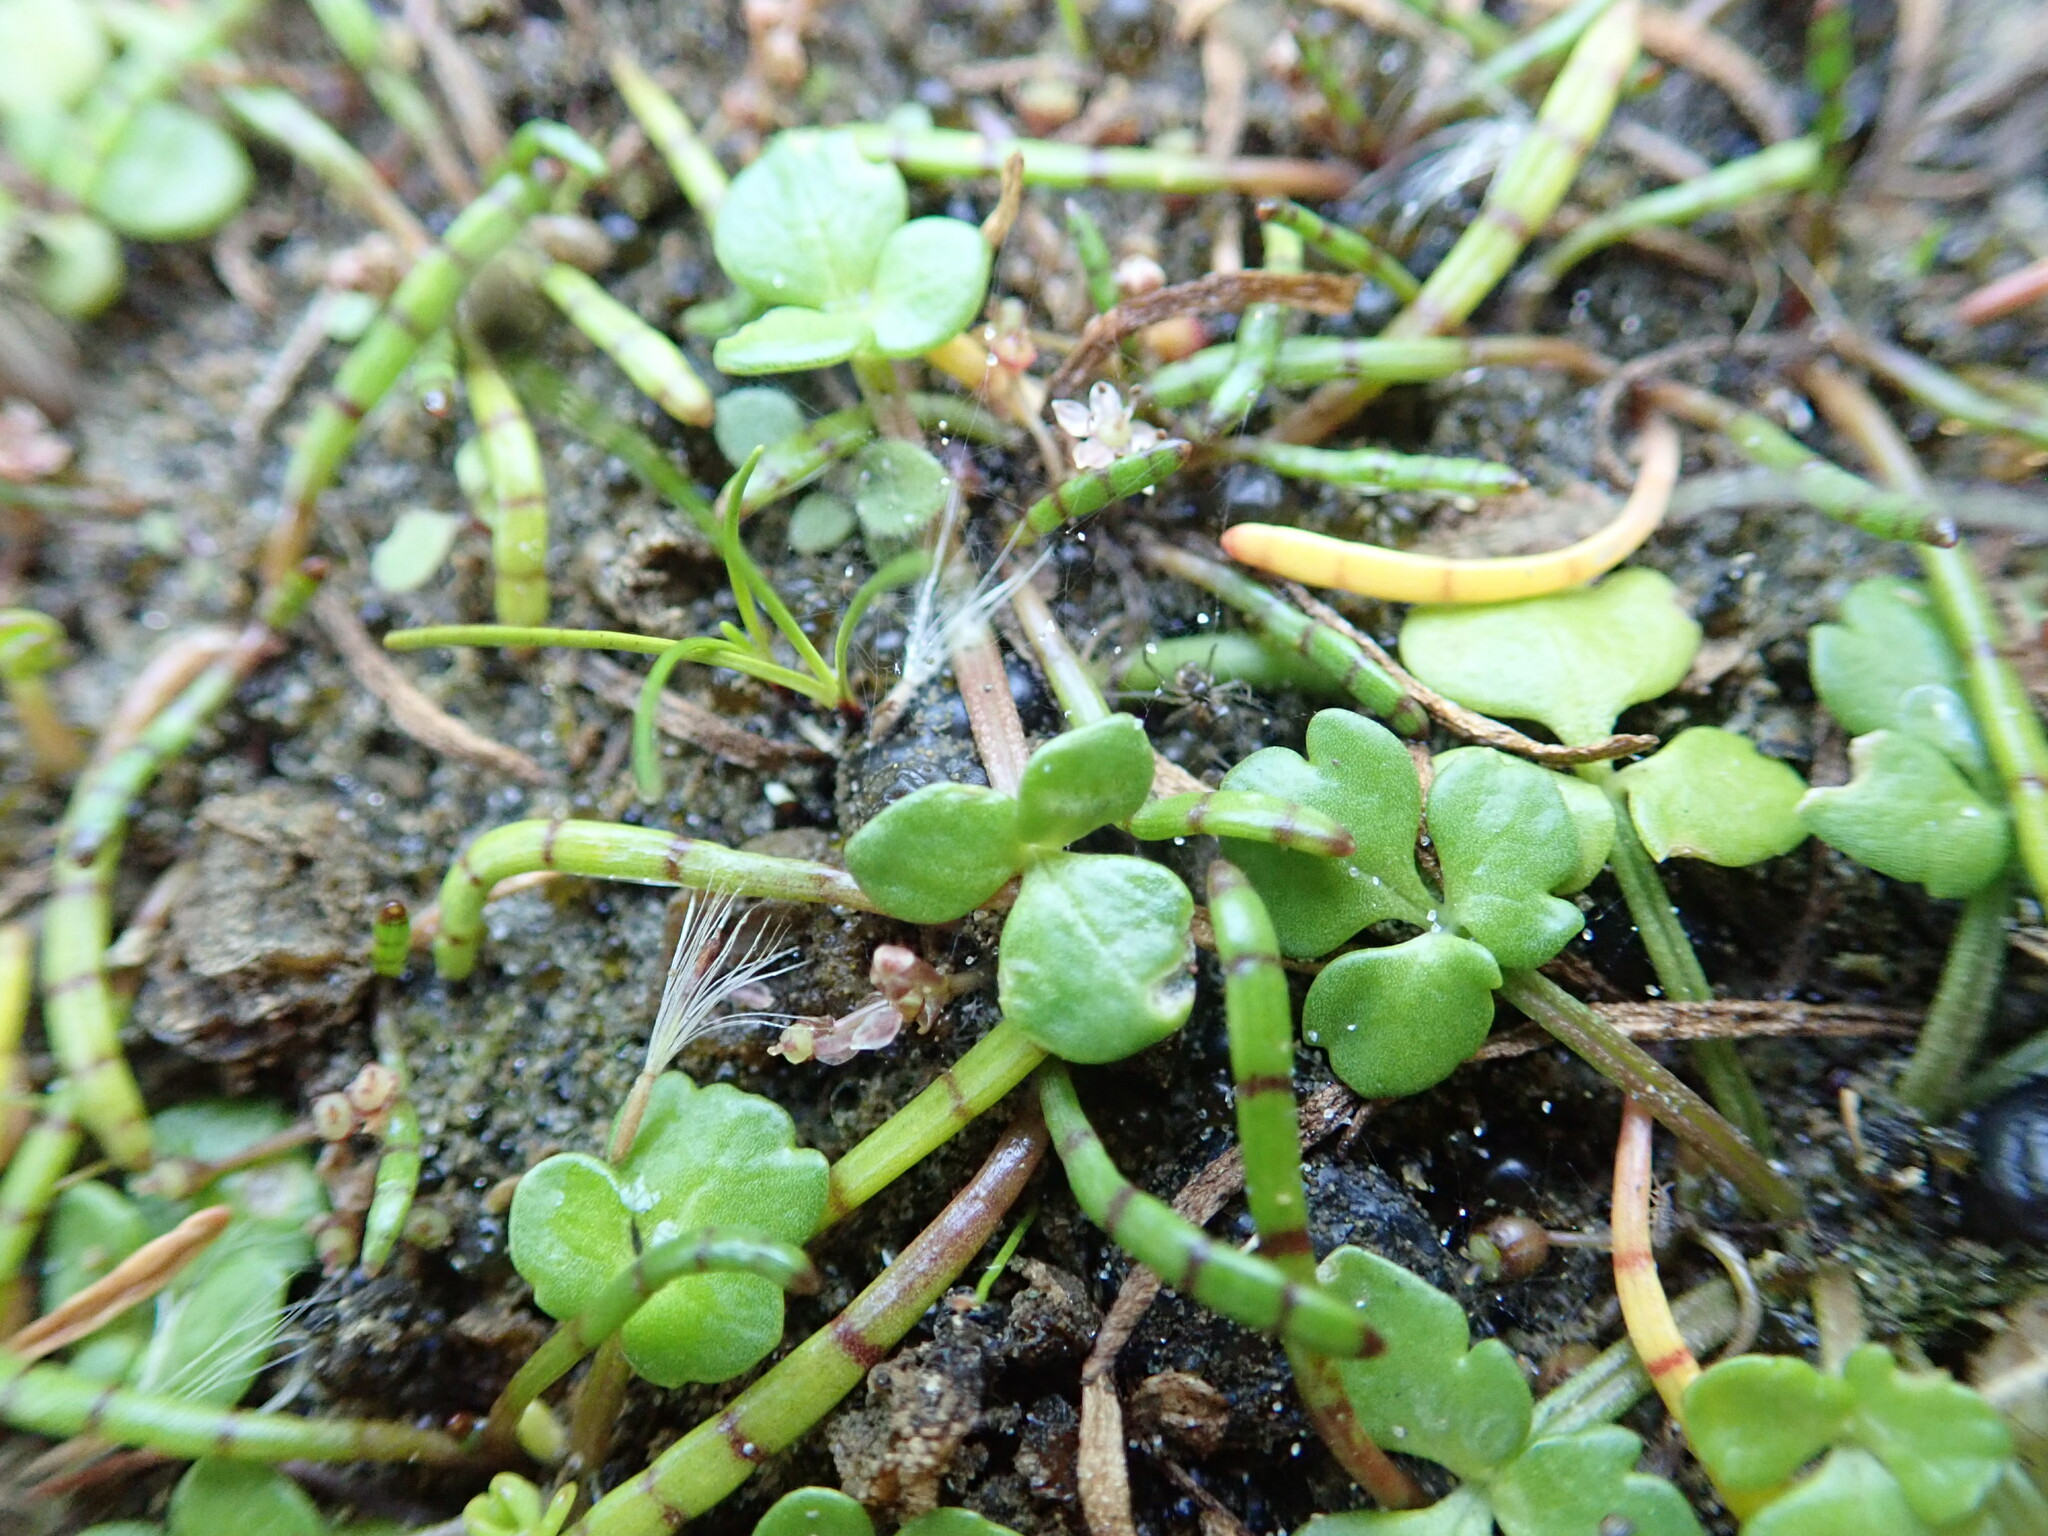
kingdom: Plantae
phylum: Tracheophyta
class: Magnoliopsida
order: Apiales
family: Apiaceae
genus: Lilaeopsis
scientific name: Lilaeopsis novae-zelandiae
